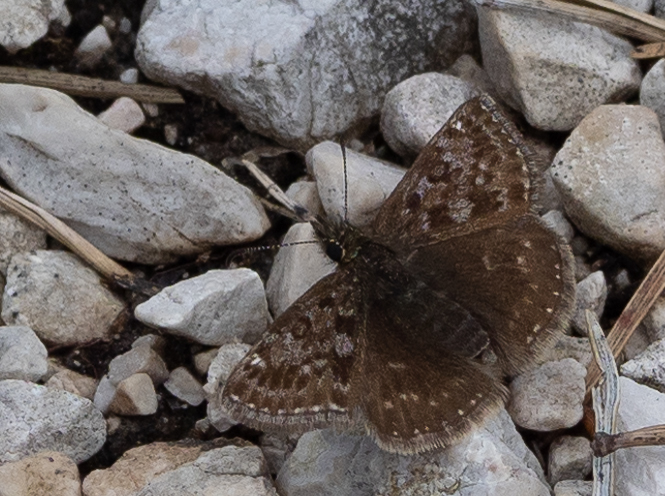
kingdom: Animalia
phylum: Arthropoda
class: Insecta
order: Lepidoptera
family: Hesperiidae
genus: Erynnis
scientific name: Erynnis tages
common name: Dingy skipper
